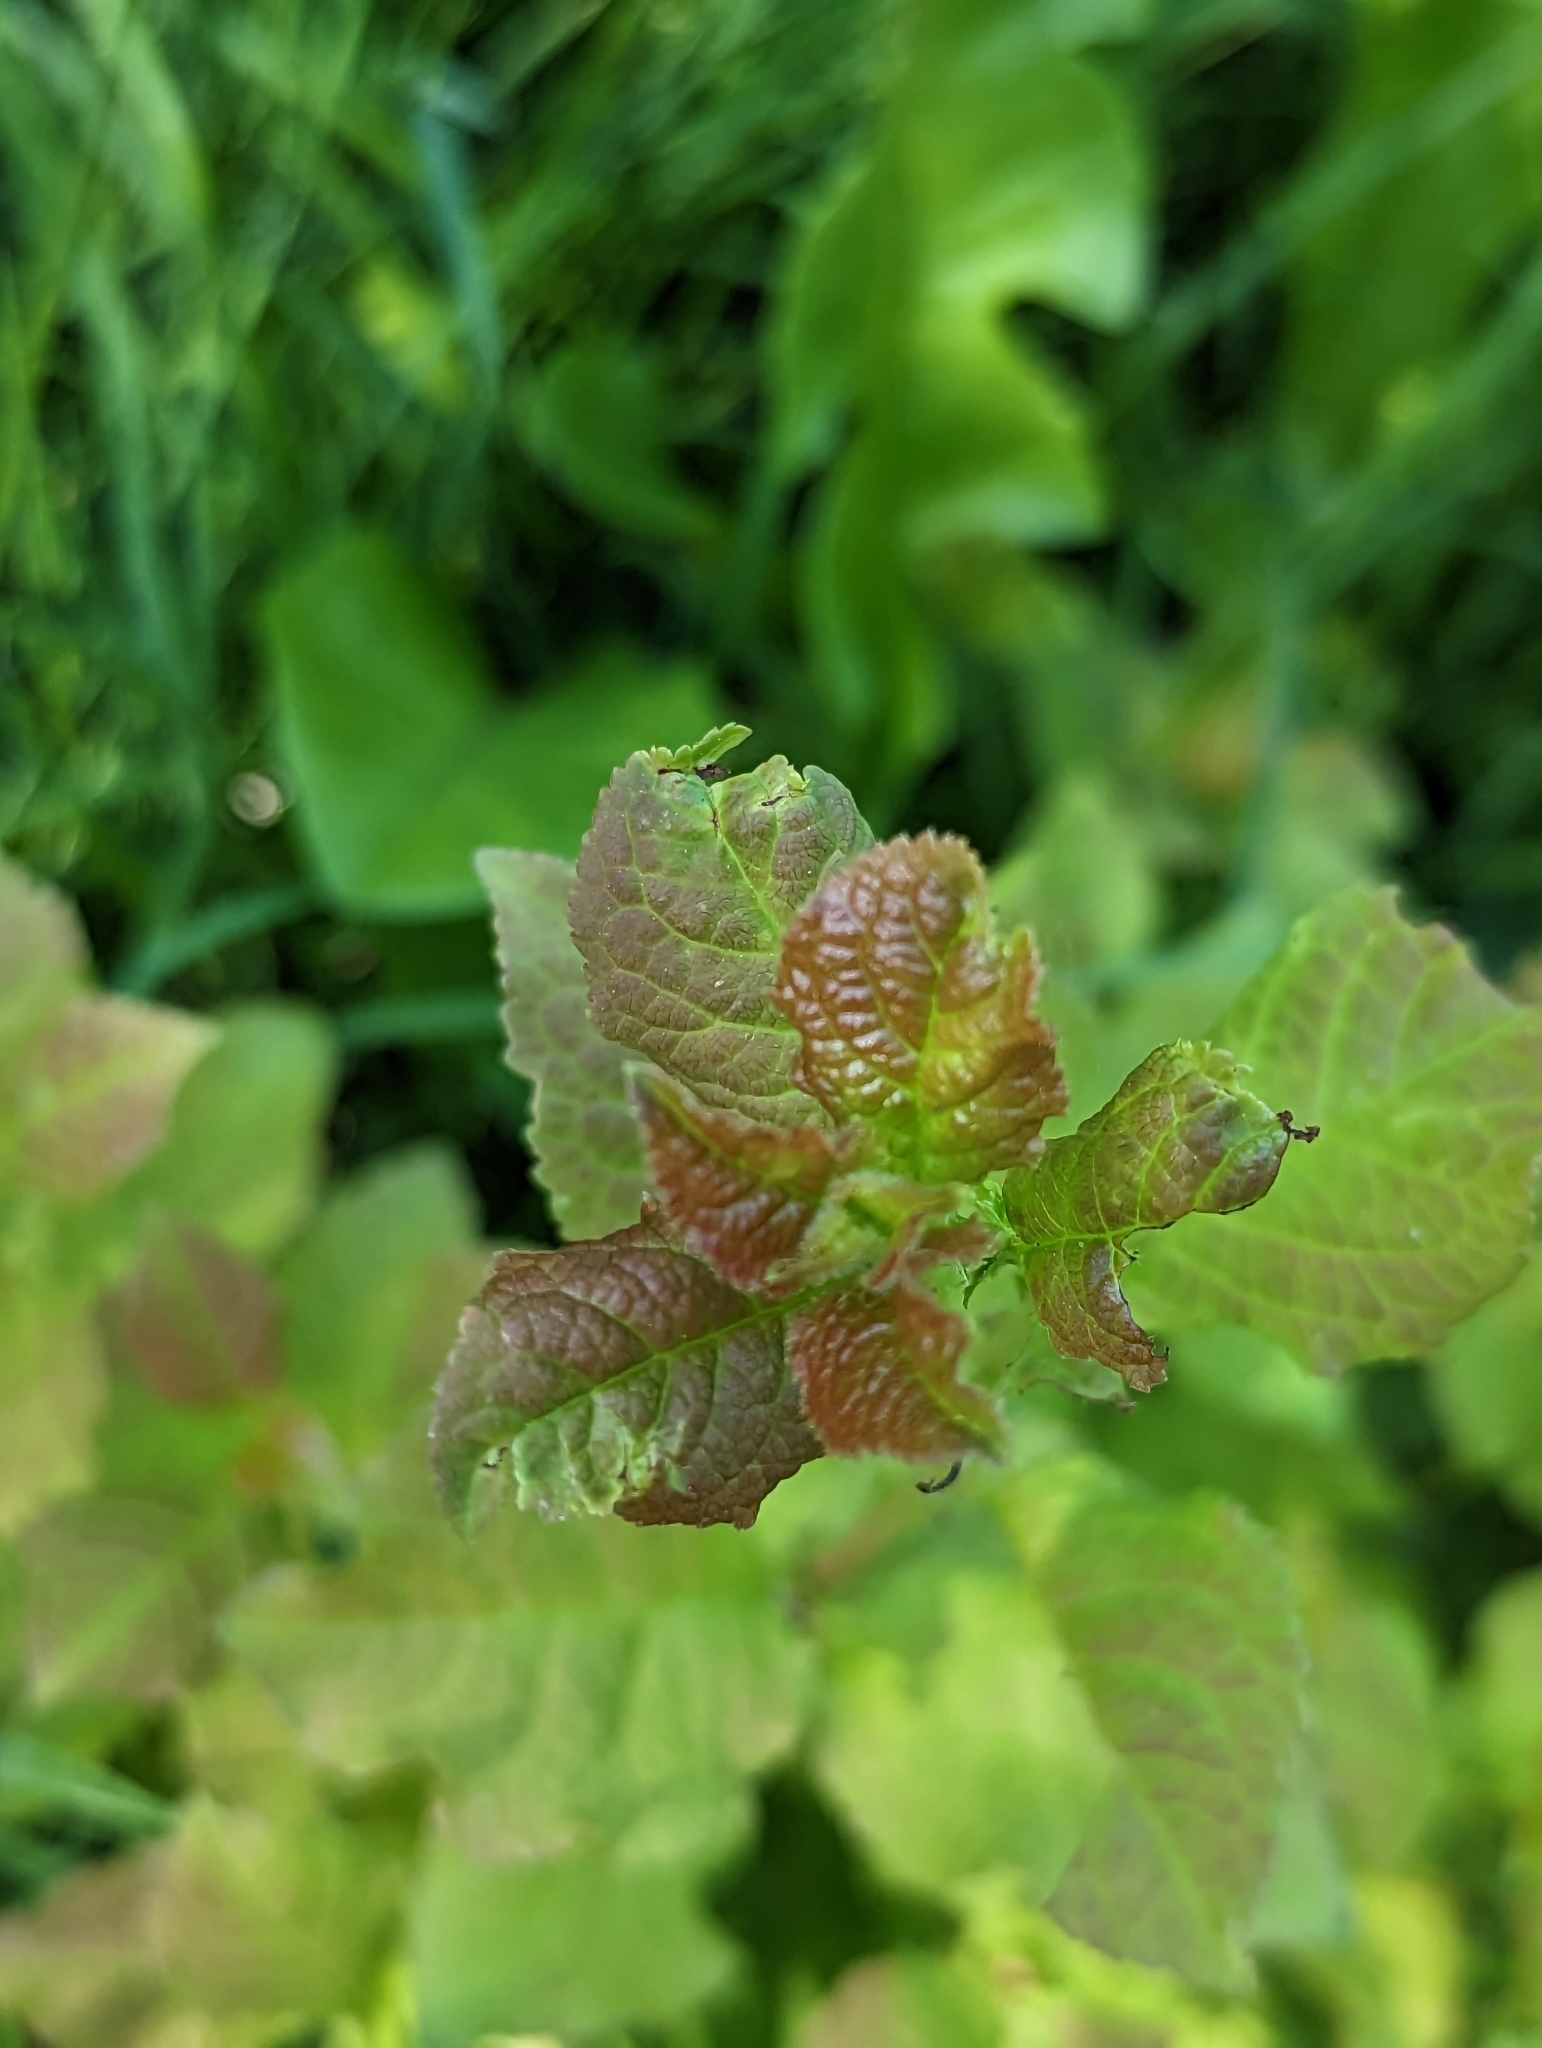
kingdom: Plantae
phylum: Tracheophyta
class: Magnoliopsida
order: Rosales
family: Rosaceae
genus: Prunus
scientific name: Prunus domestica
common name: Wild plum
